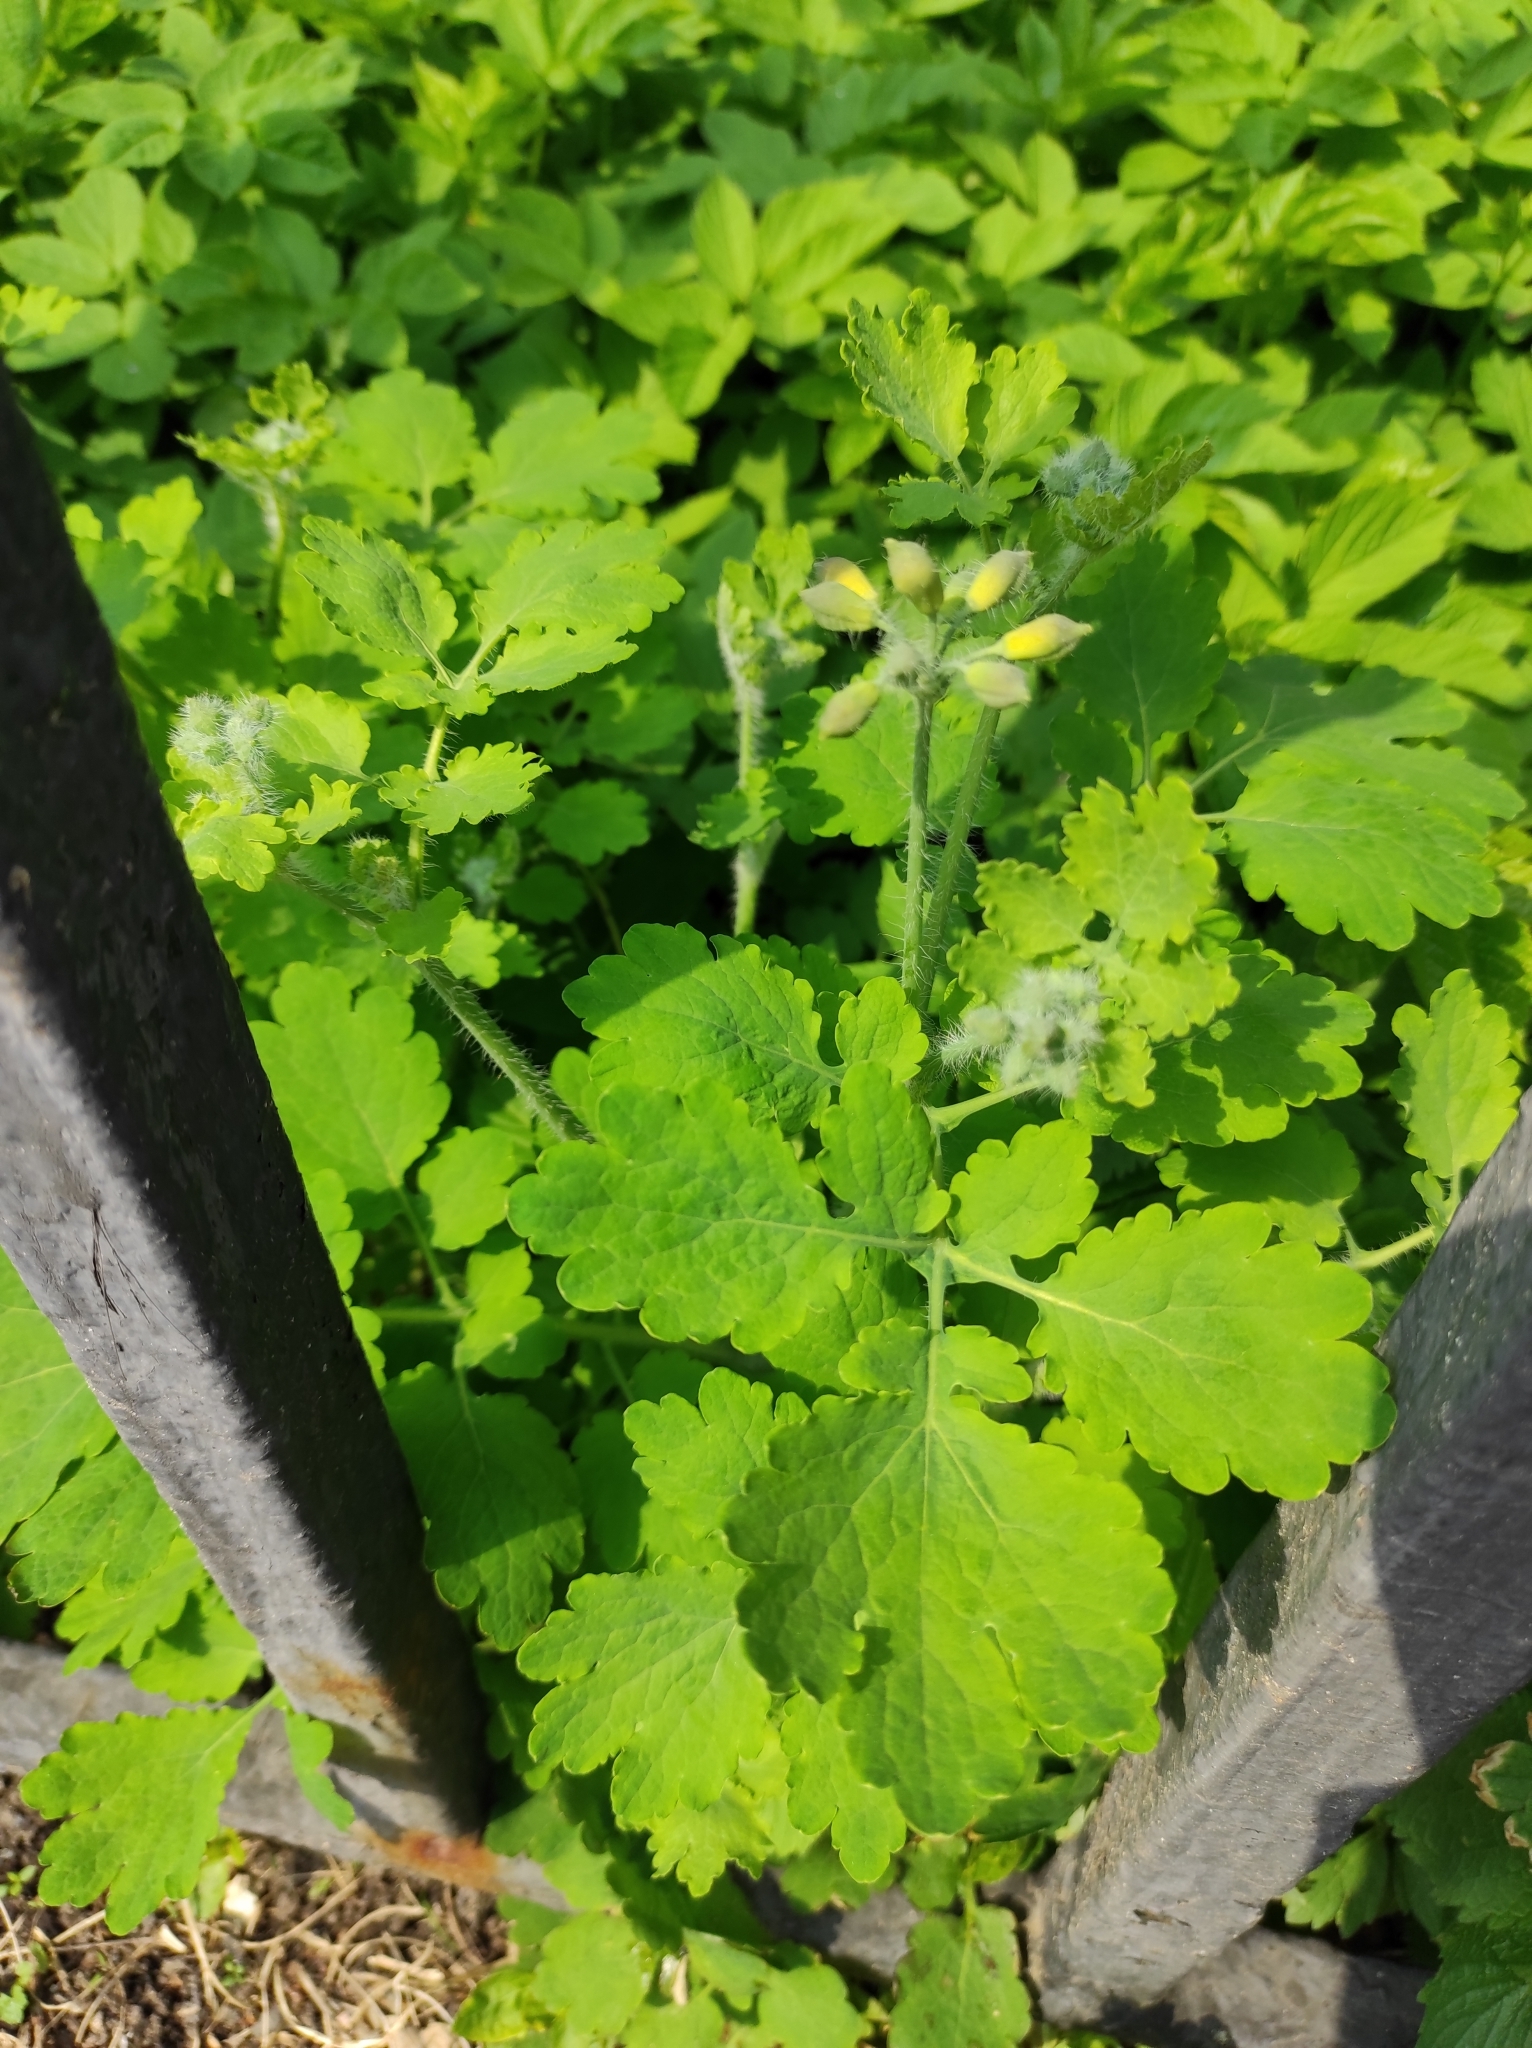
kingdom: Plantae
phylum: Tracheophyta
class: Magnoliopsida
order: Ranunculales
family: Papaveraceae
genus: Chelidonium
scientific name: Chelidonium majus
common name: Greater celandine
